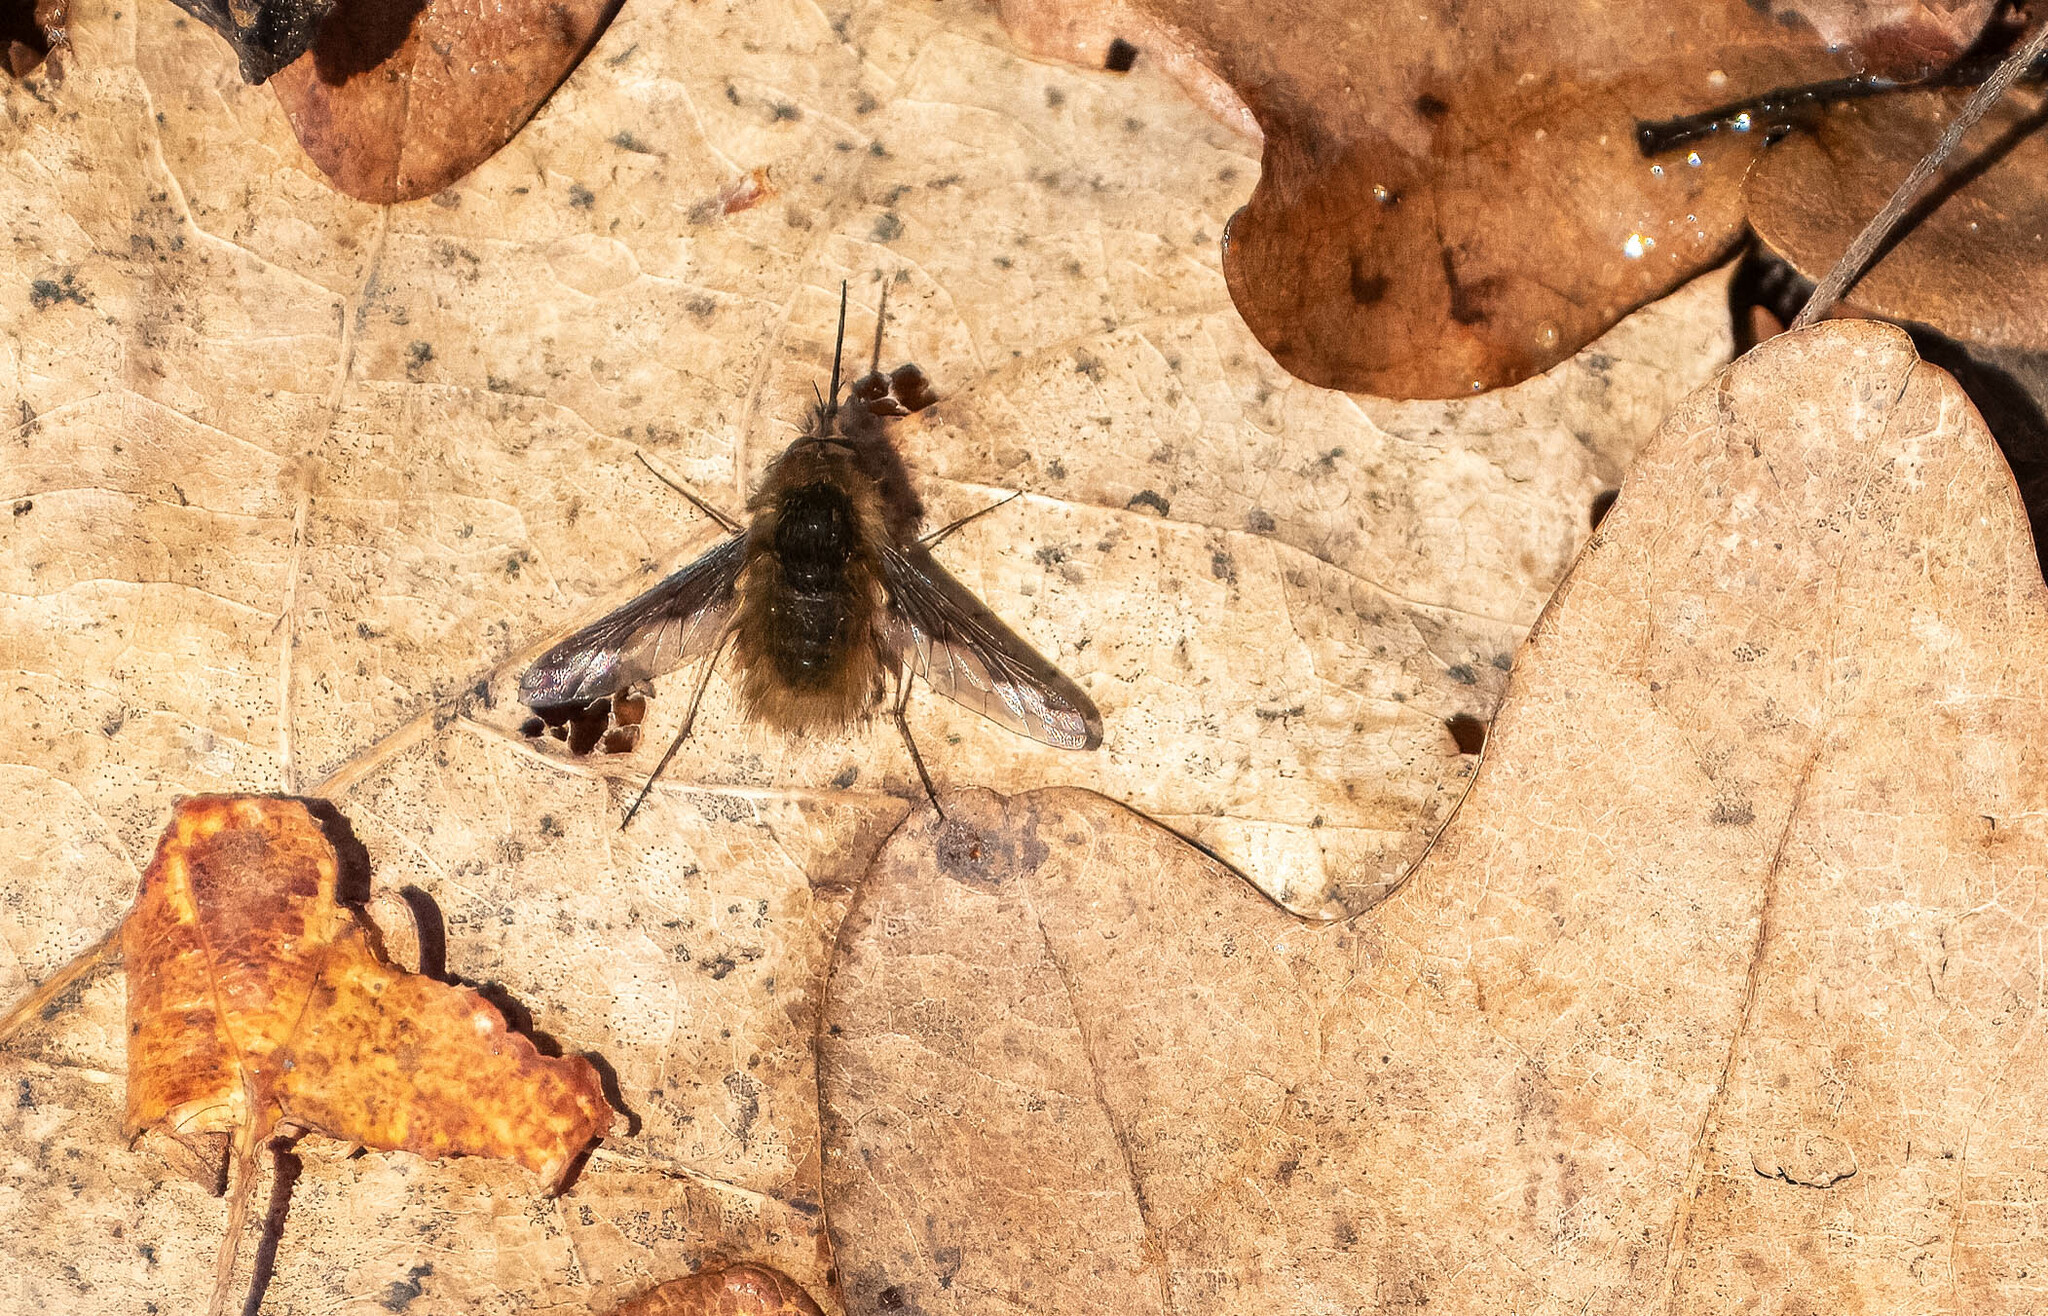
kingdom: Animalia
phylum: Arthropoda
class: Insecta
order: Diptera
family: Bombyliidae
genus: Bombylius
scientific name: Bombylius major
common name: Bee fly
